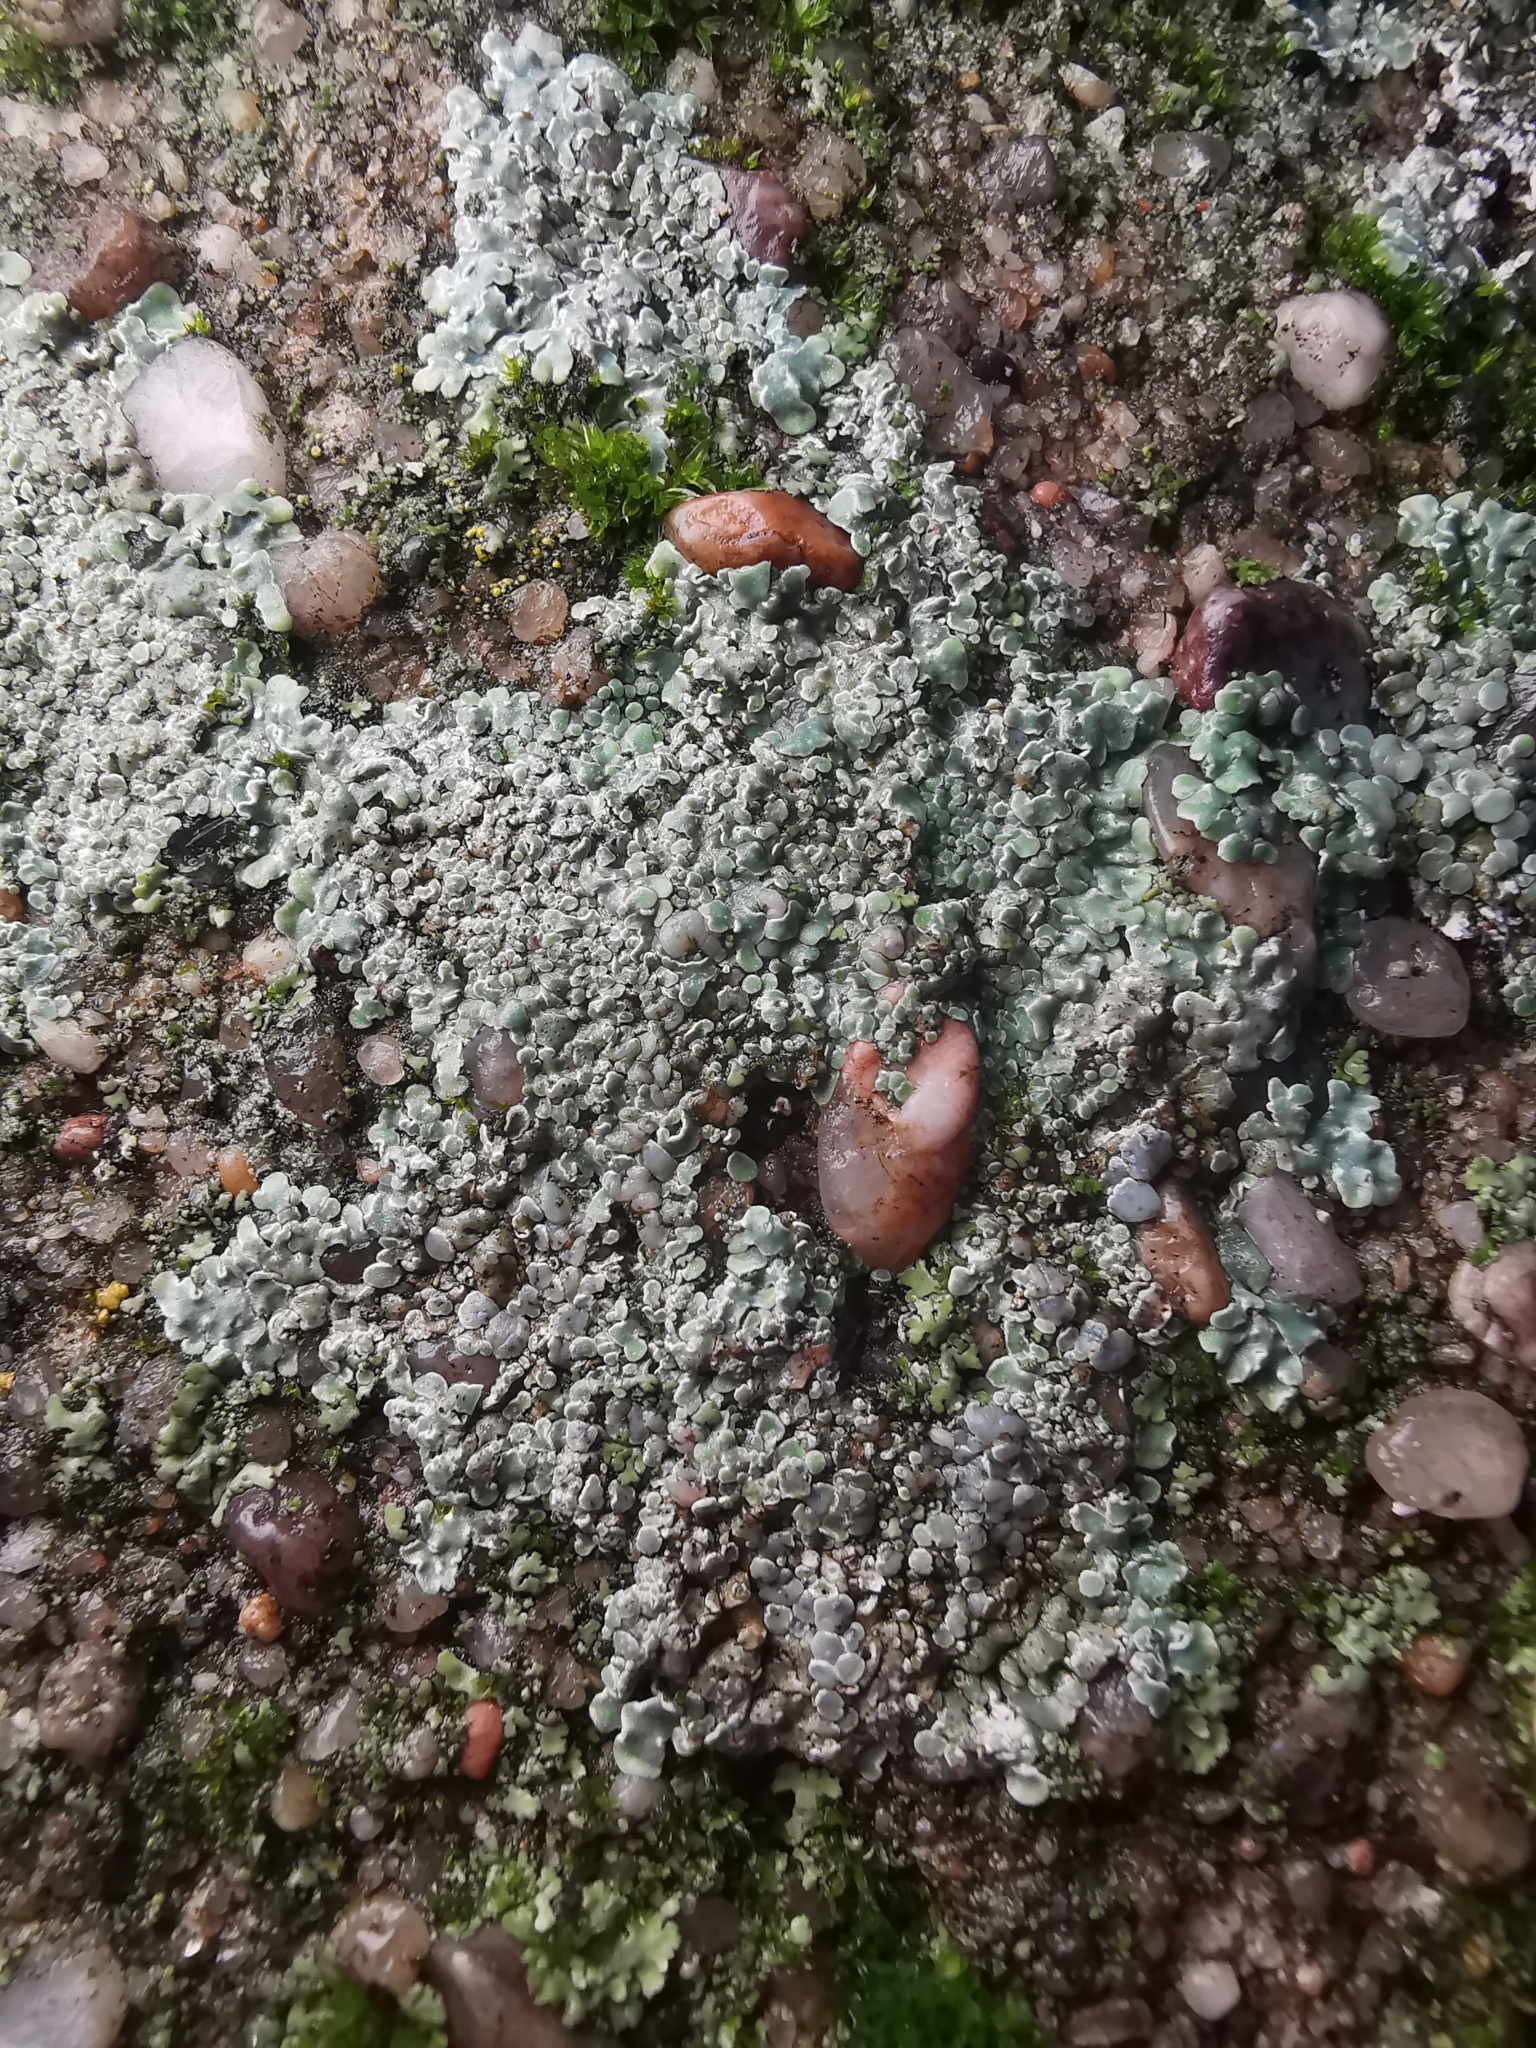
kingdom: Fungi
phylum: Ascomycota
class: Lecanoromycetes
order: Lecanorales
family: Lecanoraceae
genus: Protoparmeliopsis
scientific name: Protoparmeliopsis muralis
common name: Stonewall rim lichen
